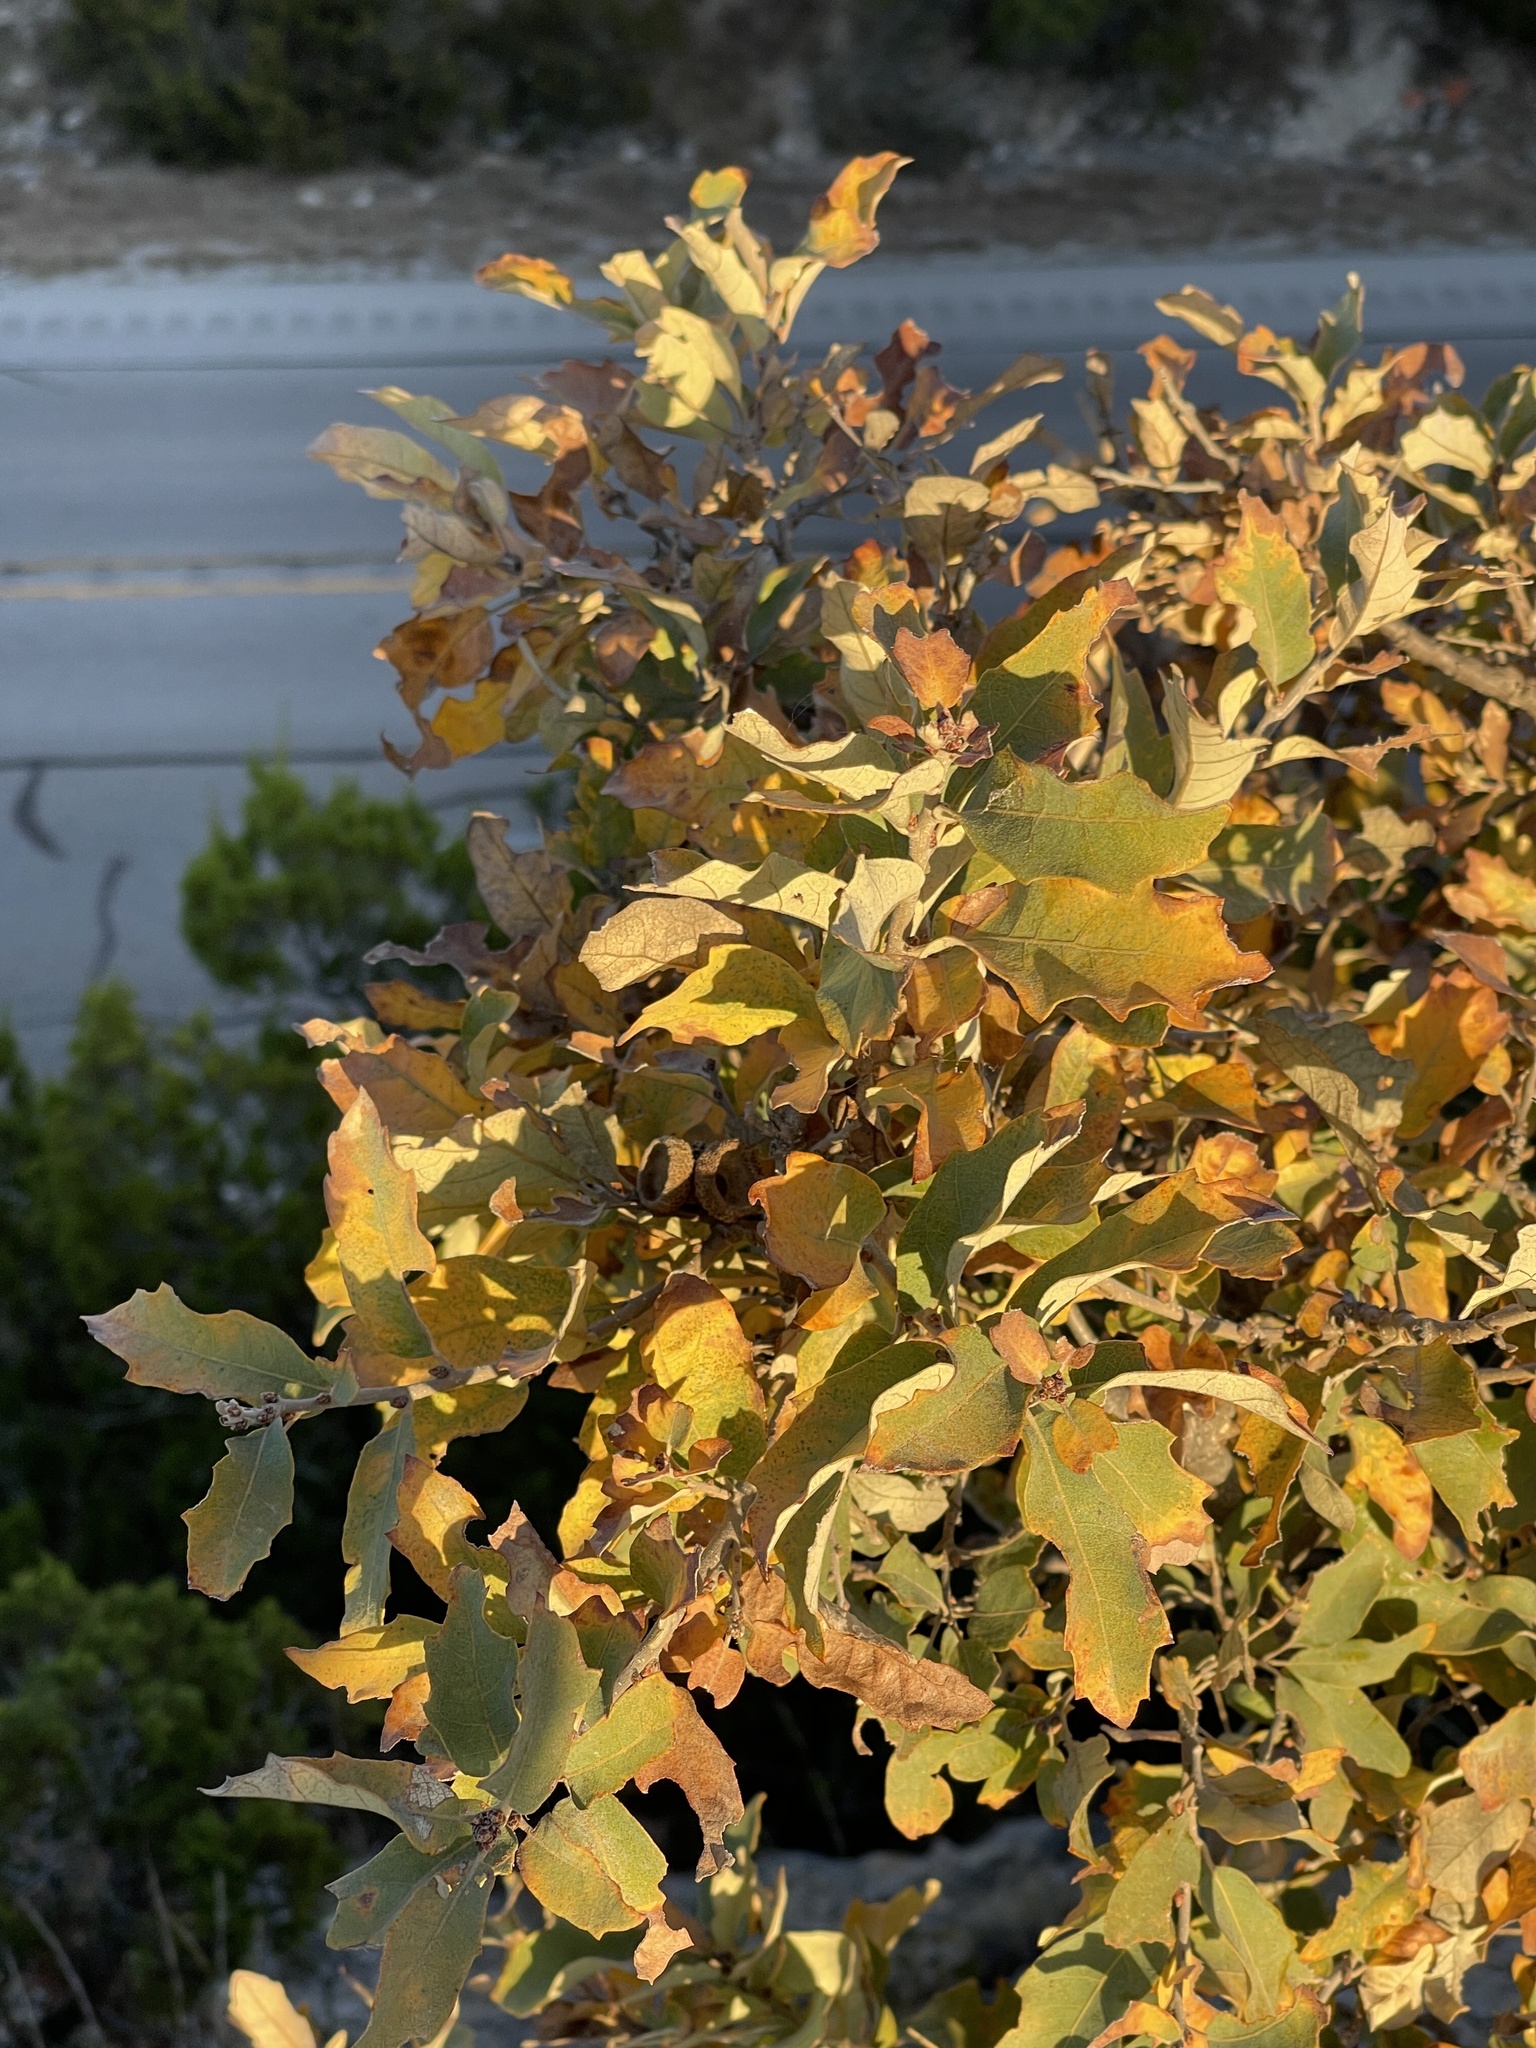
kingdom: Plantae
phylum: Tracheophyta
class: Magnoliopsida
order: Fagales
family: Fagaceae
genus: Quercus
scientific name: Quercus havardii
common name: Shinnery oak
